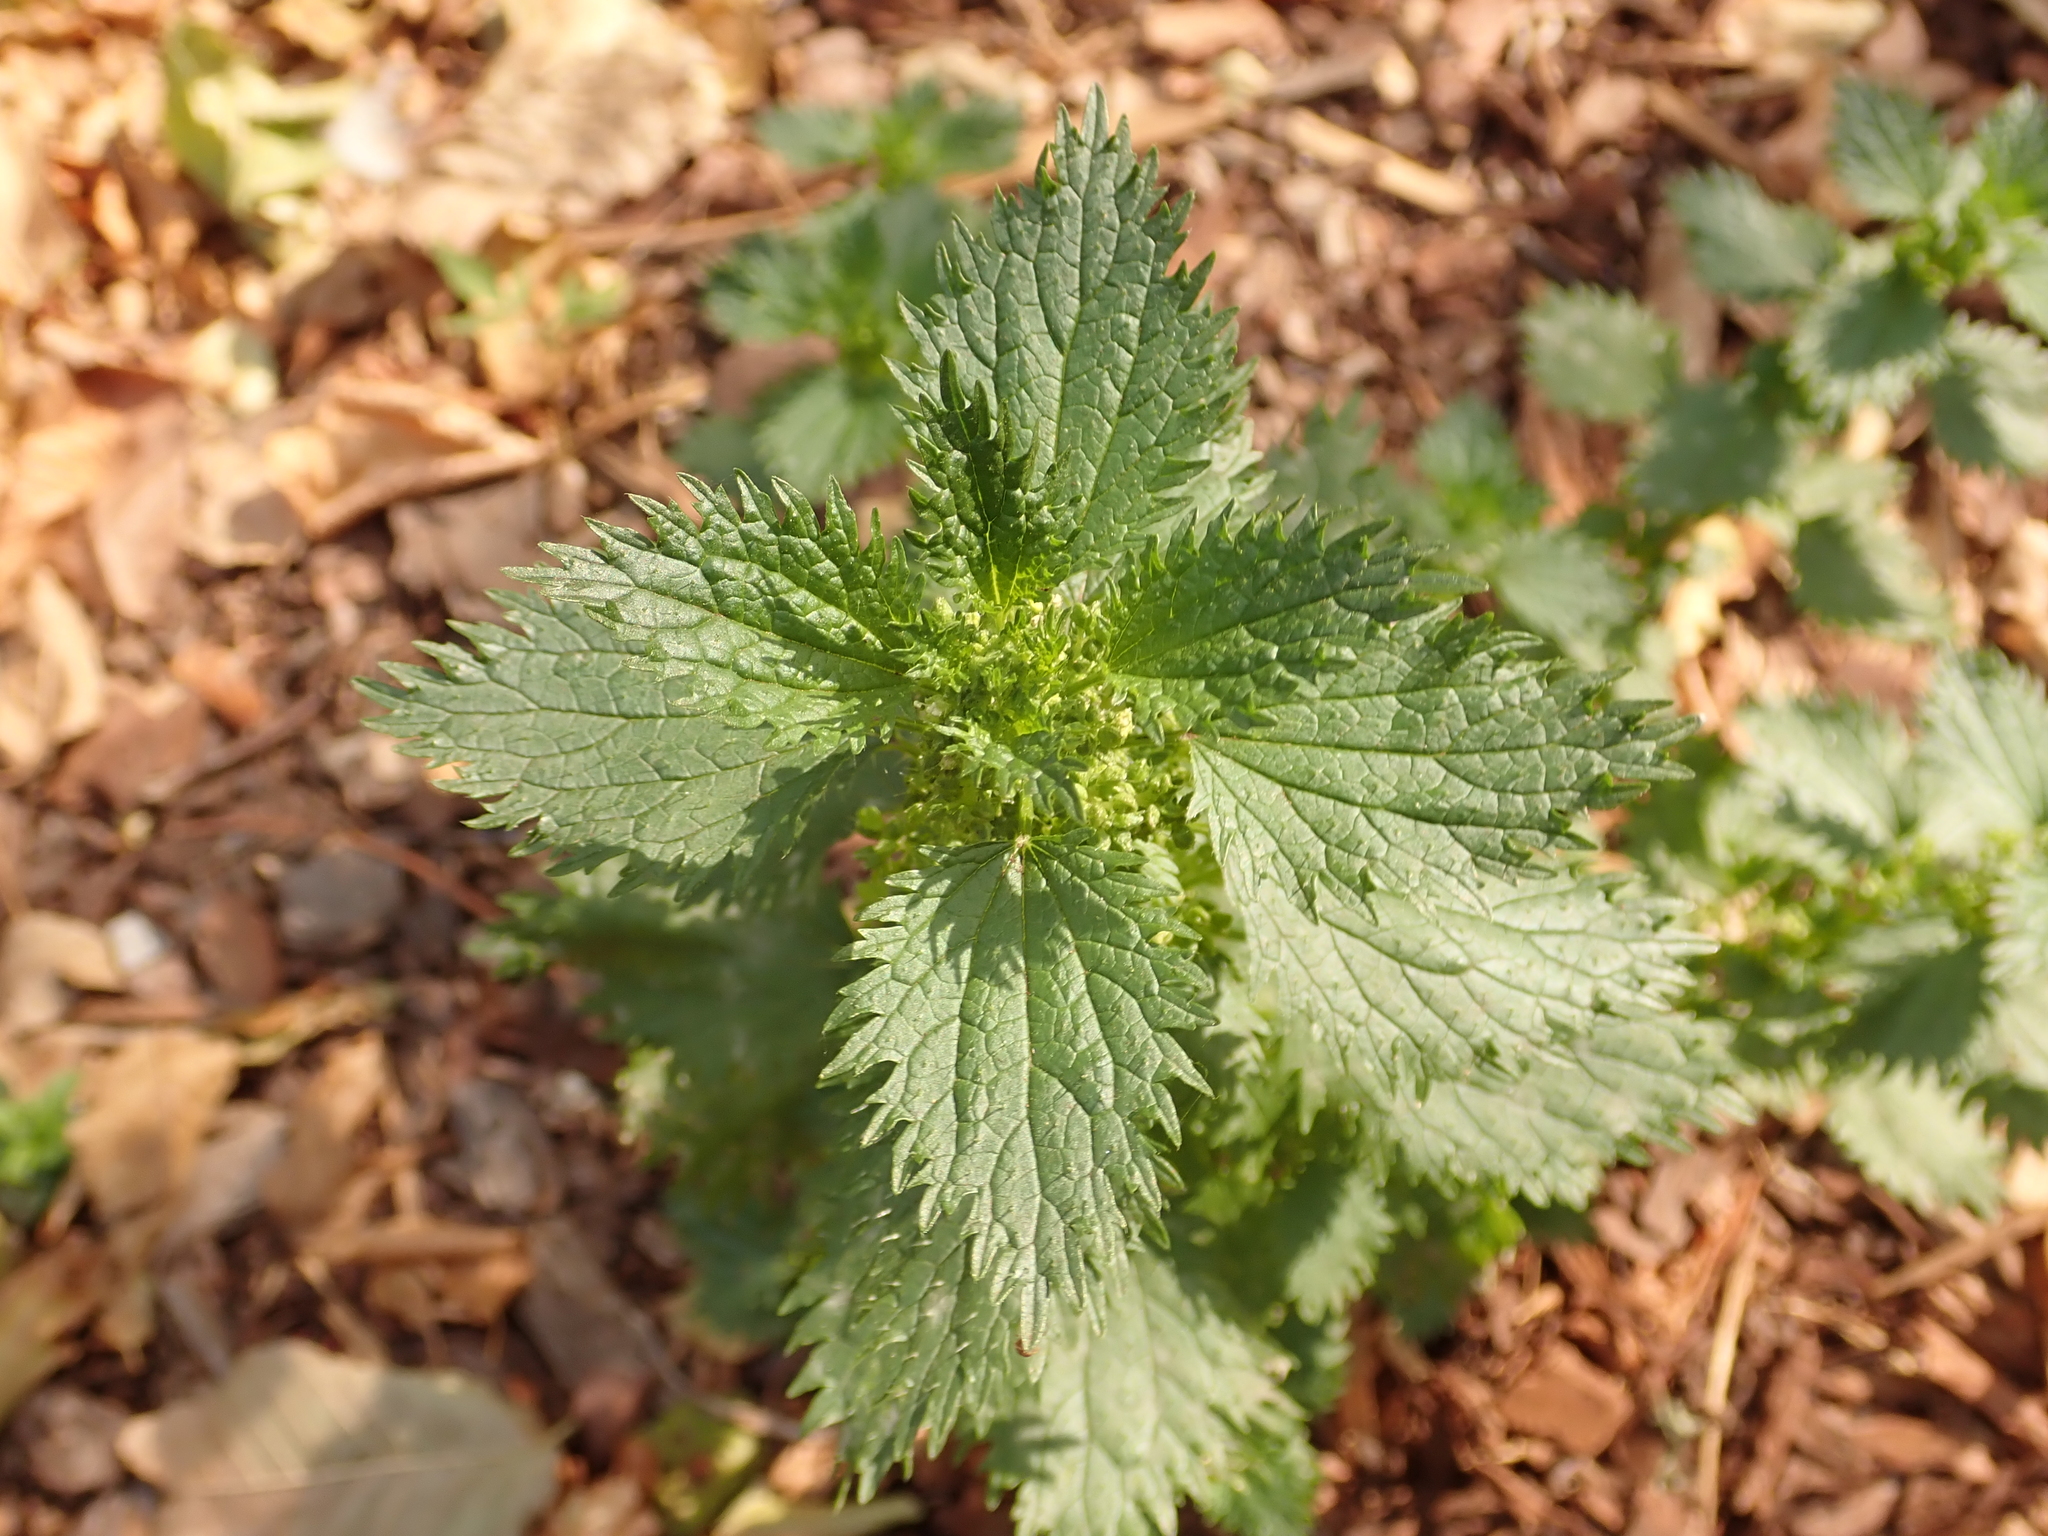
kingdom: Plantae
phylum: Tracheophyta
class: Magnoliopsida
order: Rosales
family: Urticaceae
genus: Urtica
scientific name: Urtica urens
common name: Dwarf nettle
